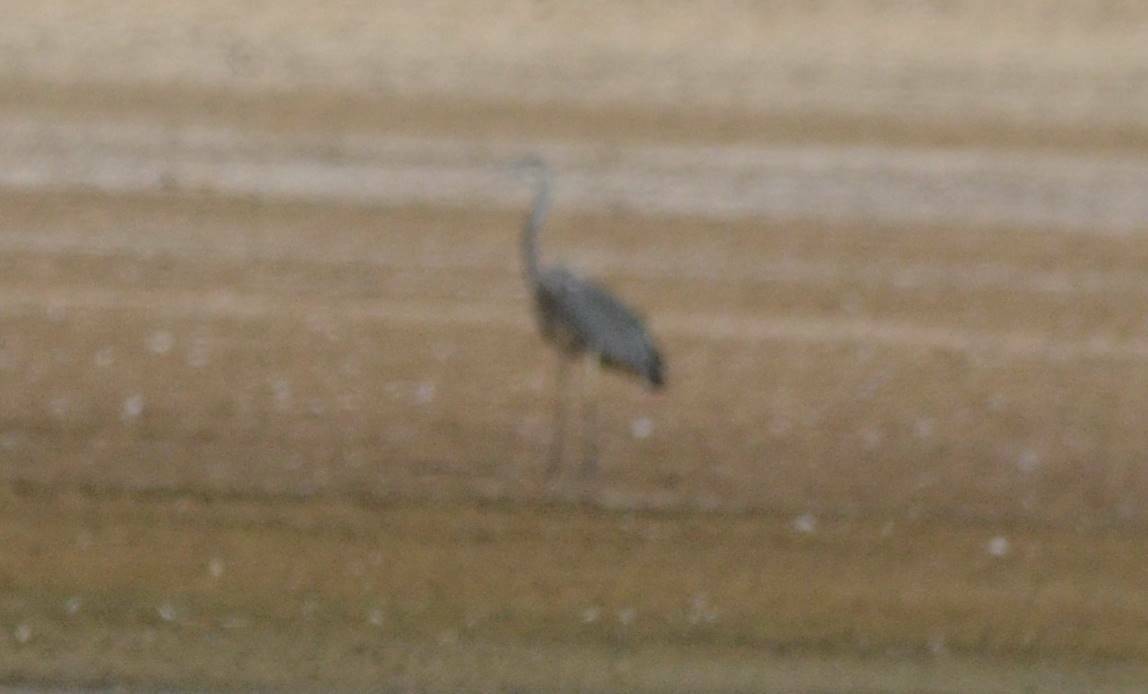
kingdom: Animalia
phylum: Chordata
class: Aves
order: Pelecaniformes
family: Ardeidae
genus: Ardea
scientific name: Ardea cinerea
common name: Grey heron
